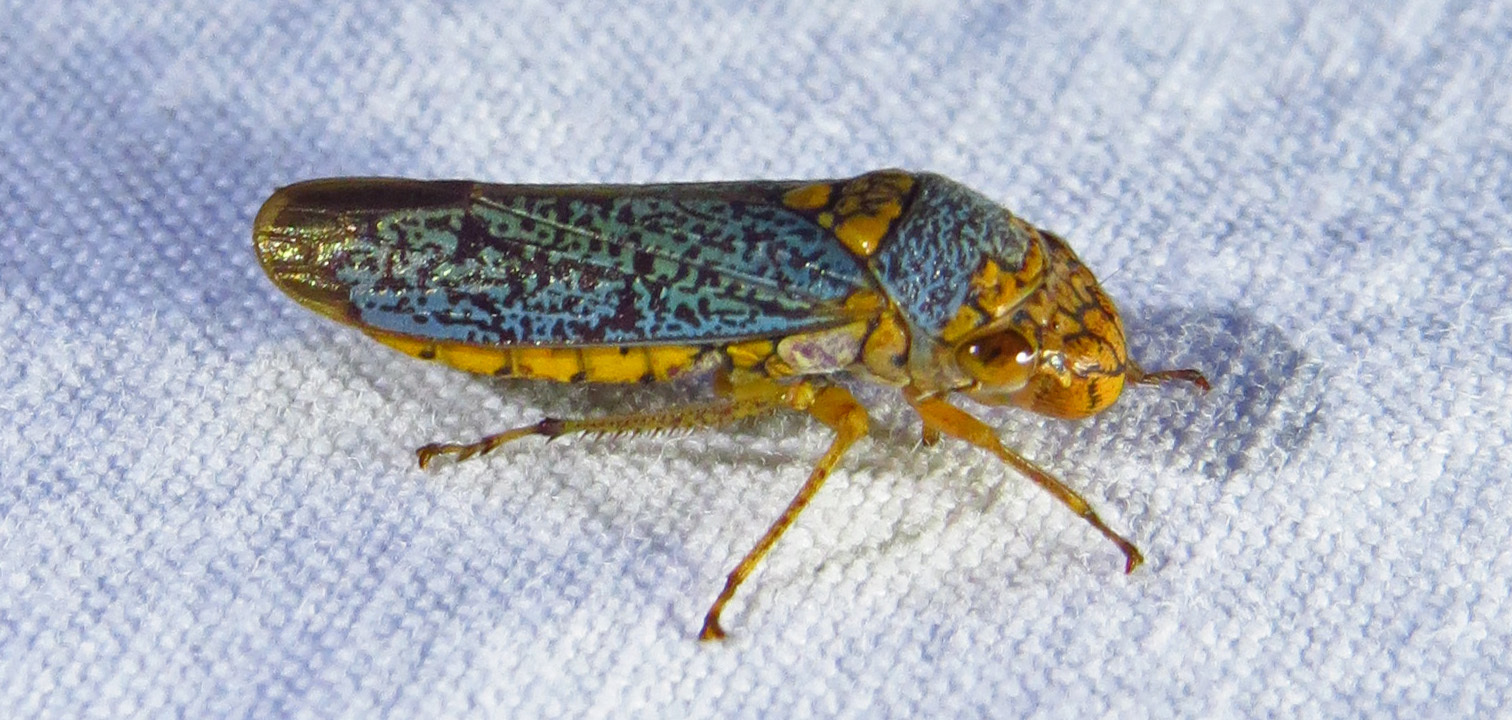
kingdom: Animalia
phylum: Arthropoda
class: Insecta
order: Hemiptera
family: Cicadellidae
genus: Oncometopia
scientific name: Oncometopia orbona
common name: Broad-headed sharpshooter
